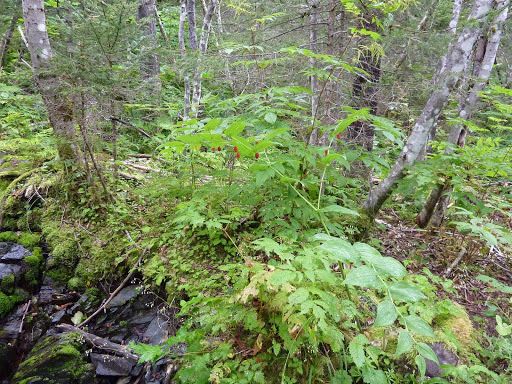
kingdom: Plantae
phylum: Tracheophyta
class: Liliopsida
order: Liliales
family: Liliaceae
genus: Streptopus
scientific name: Streptopus amplexifolius
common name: Clasp twisted stalk
